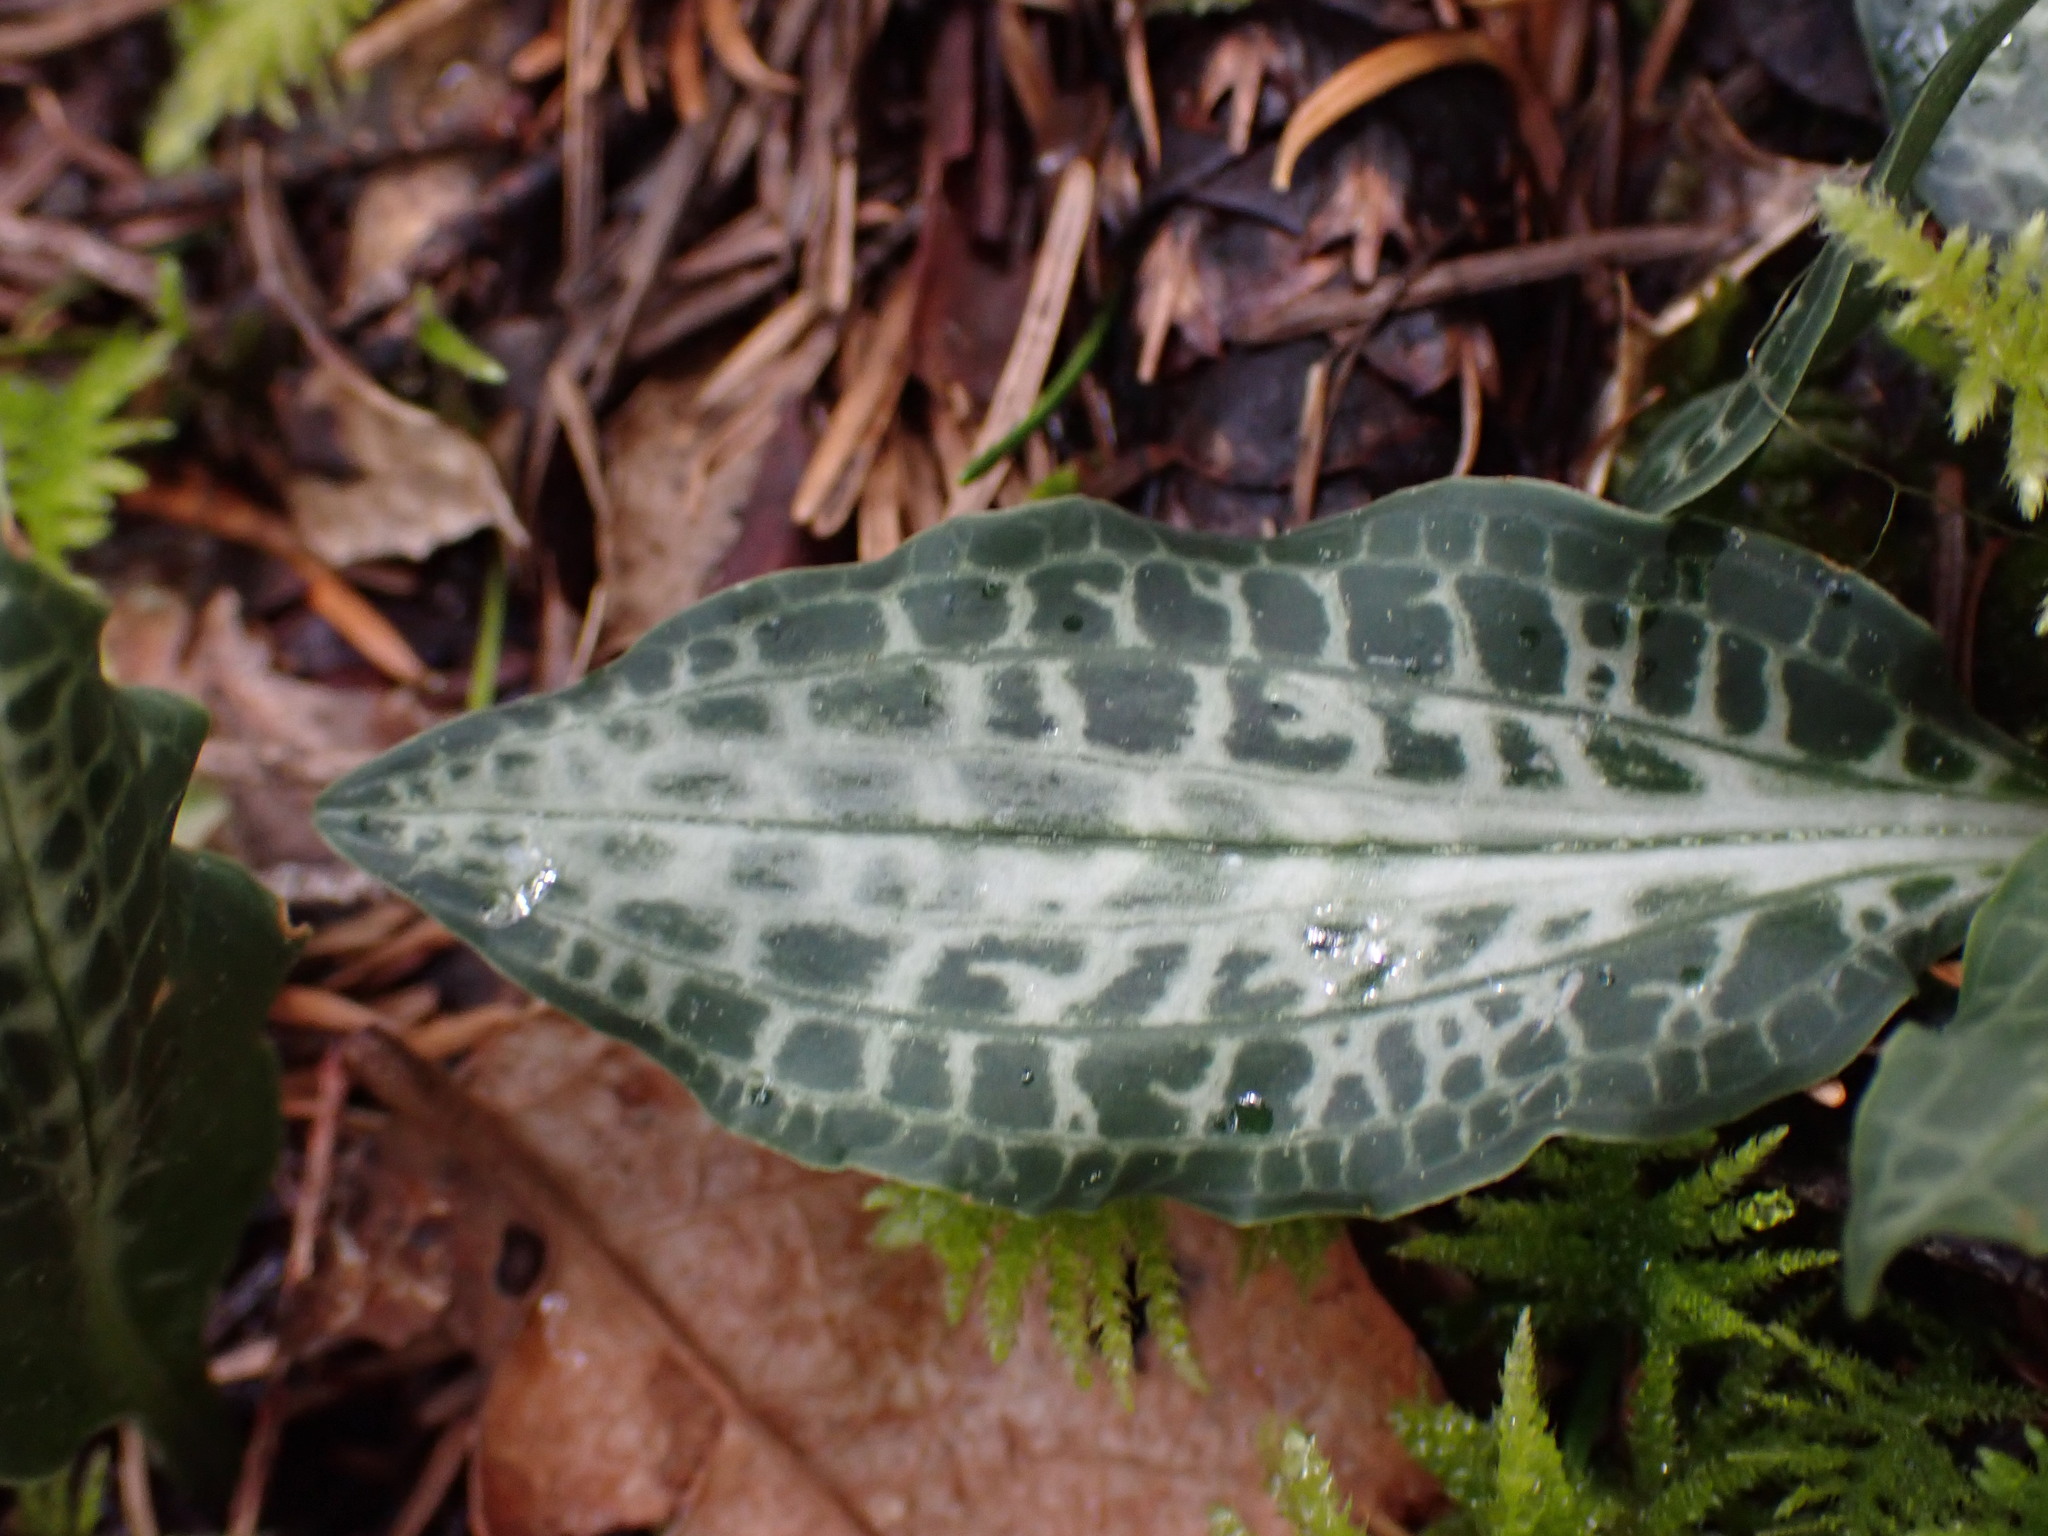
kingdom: Plantae
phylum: Tracheophyta
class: Liliopsida
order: Asparagales
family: Orchidaceae
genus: Goodyera
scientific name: Goodyera oblongifolia
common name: Giant rattlesnake-plantain
